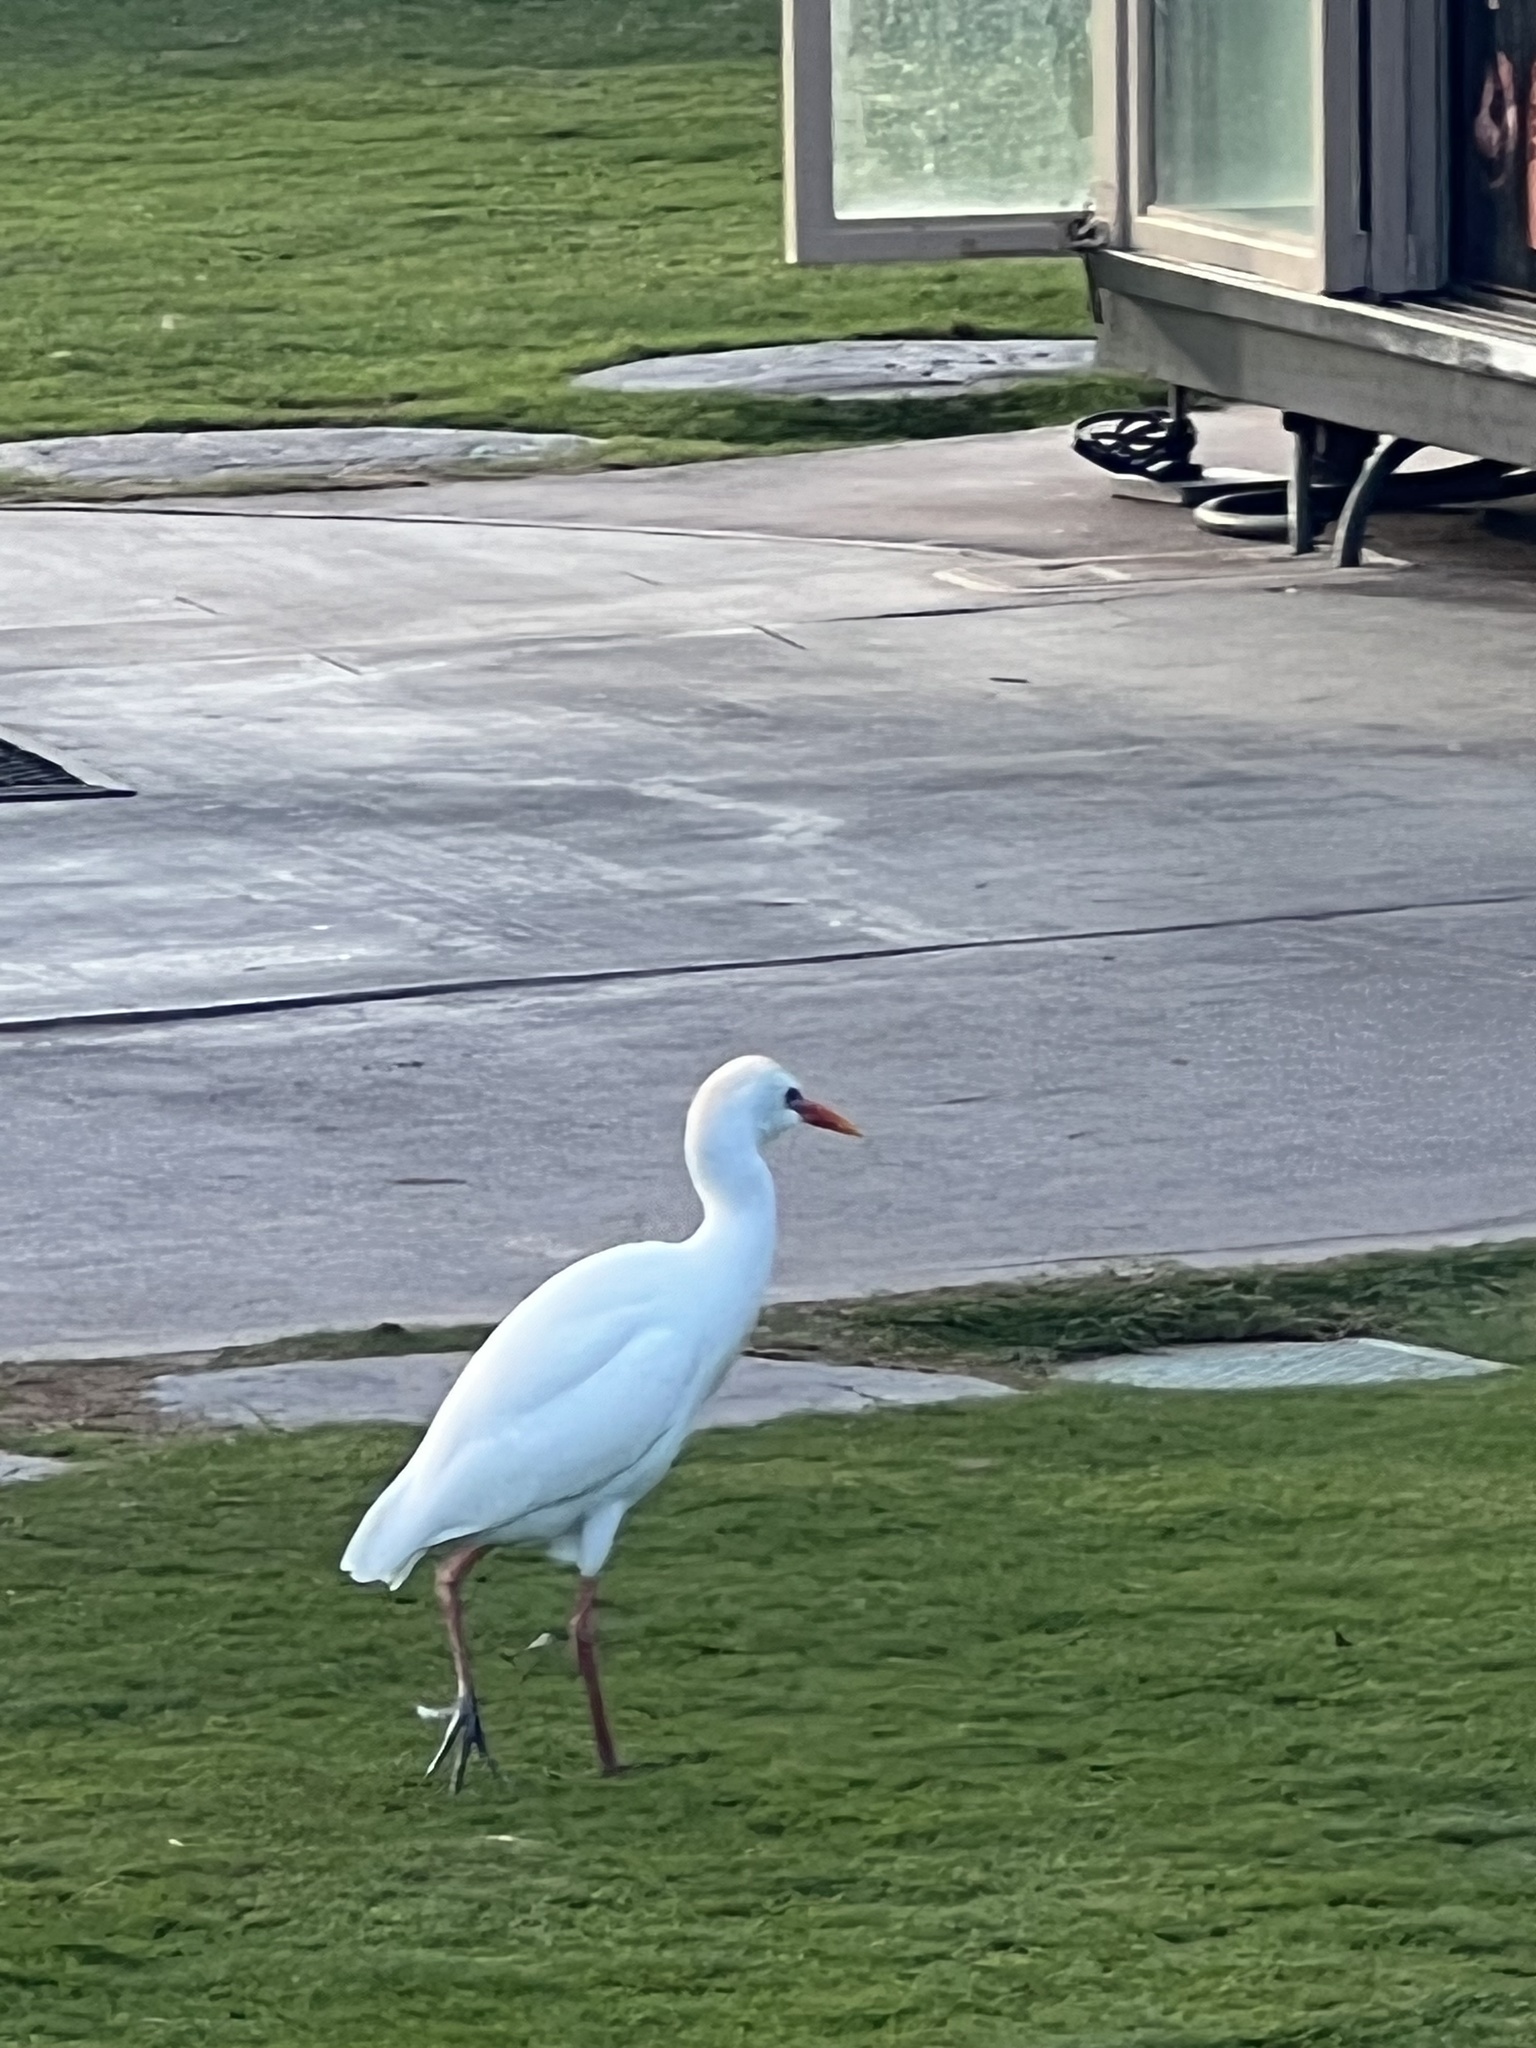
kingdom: Animalia
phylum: Chordata
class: Aves
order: Pelecaniformes
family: Ardeidae
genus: Bubulcus
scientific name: Bubulcus ibis
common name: Cattle egret
